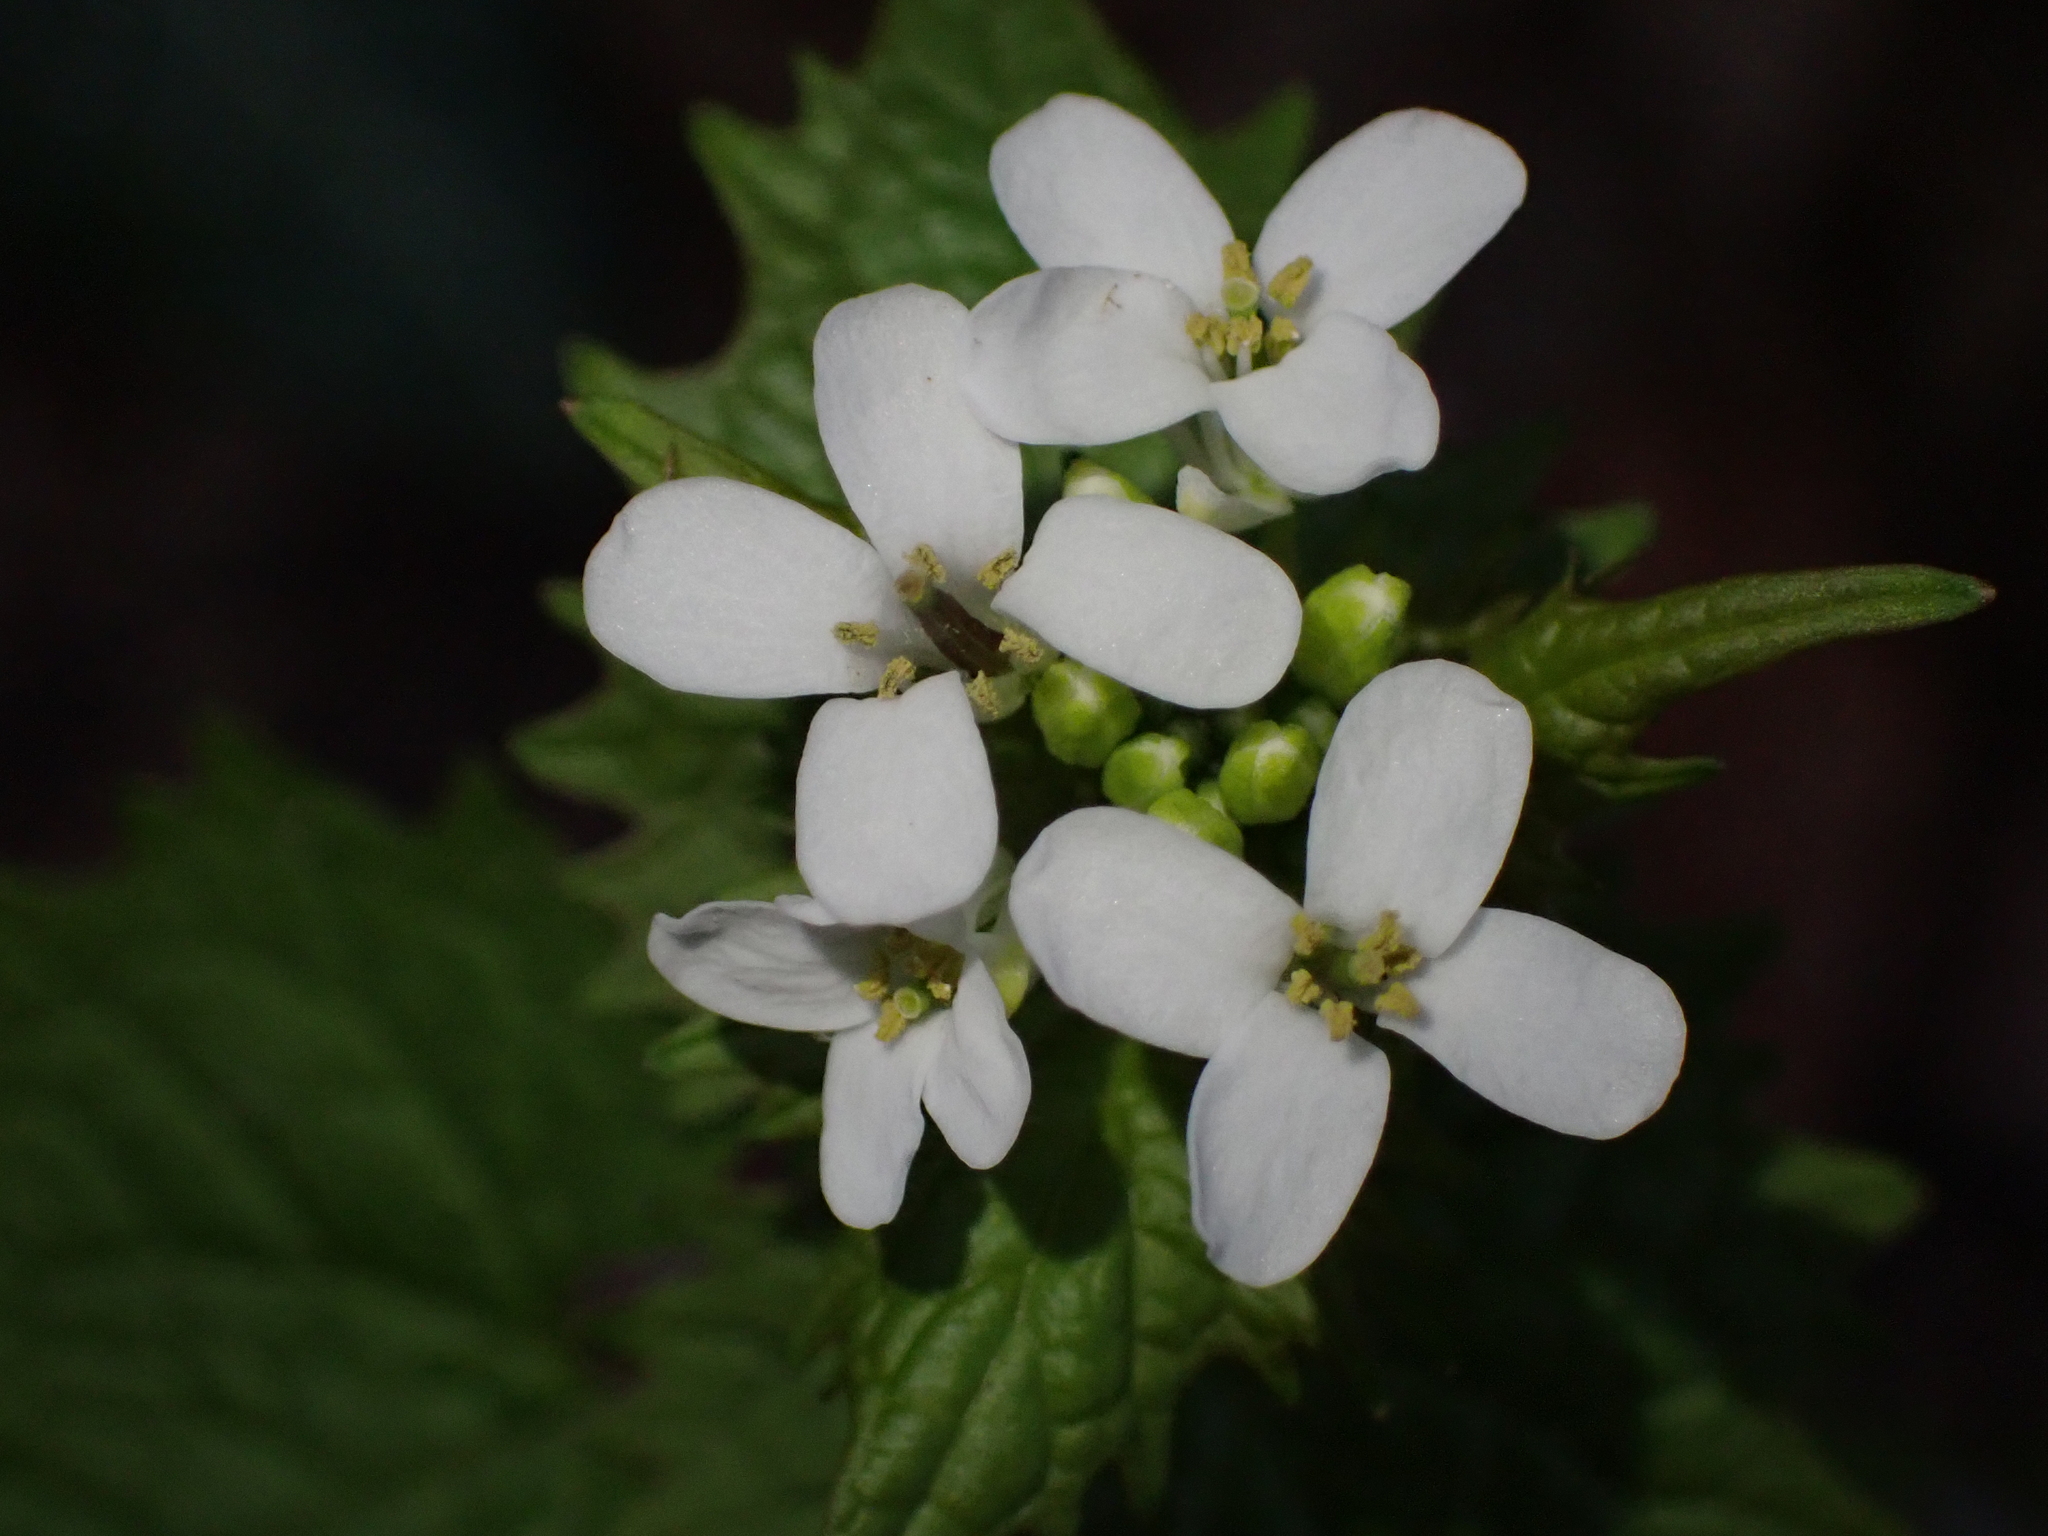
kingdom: Plantae
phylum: Tracheophyta
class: Magnoliopsida
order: Brassicales
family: Brassicaceae
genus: Alliaria
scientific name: Alliaria petiolata
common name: Garlic mustard
